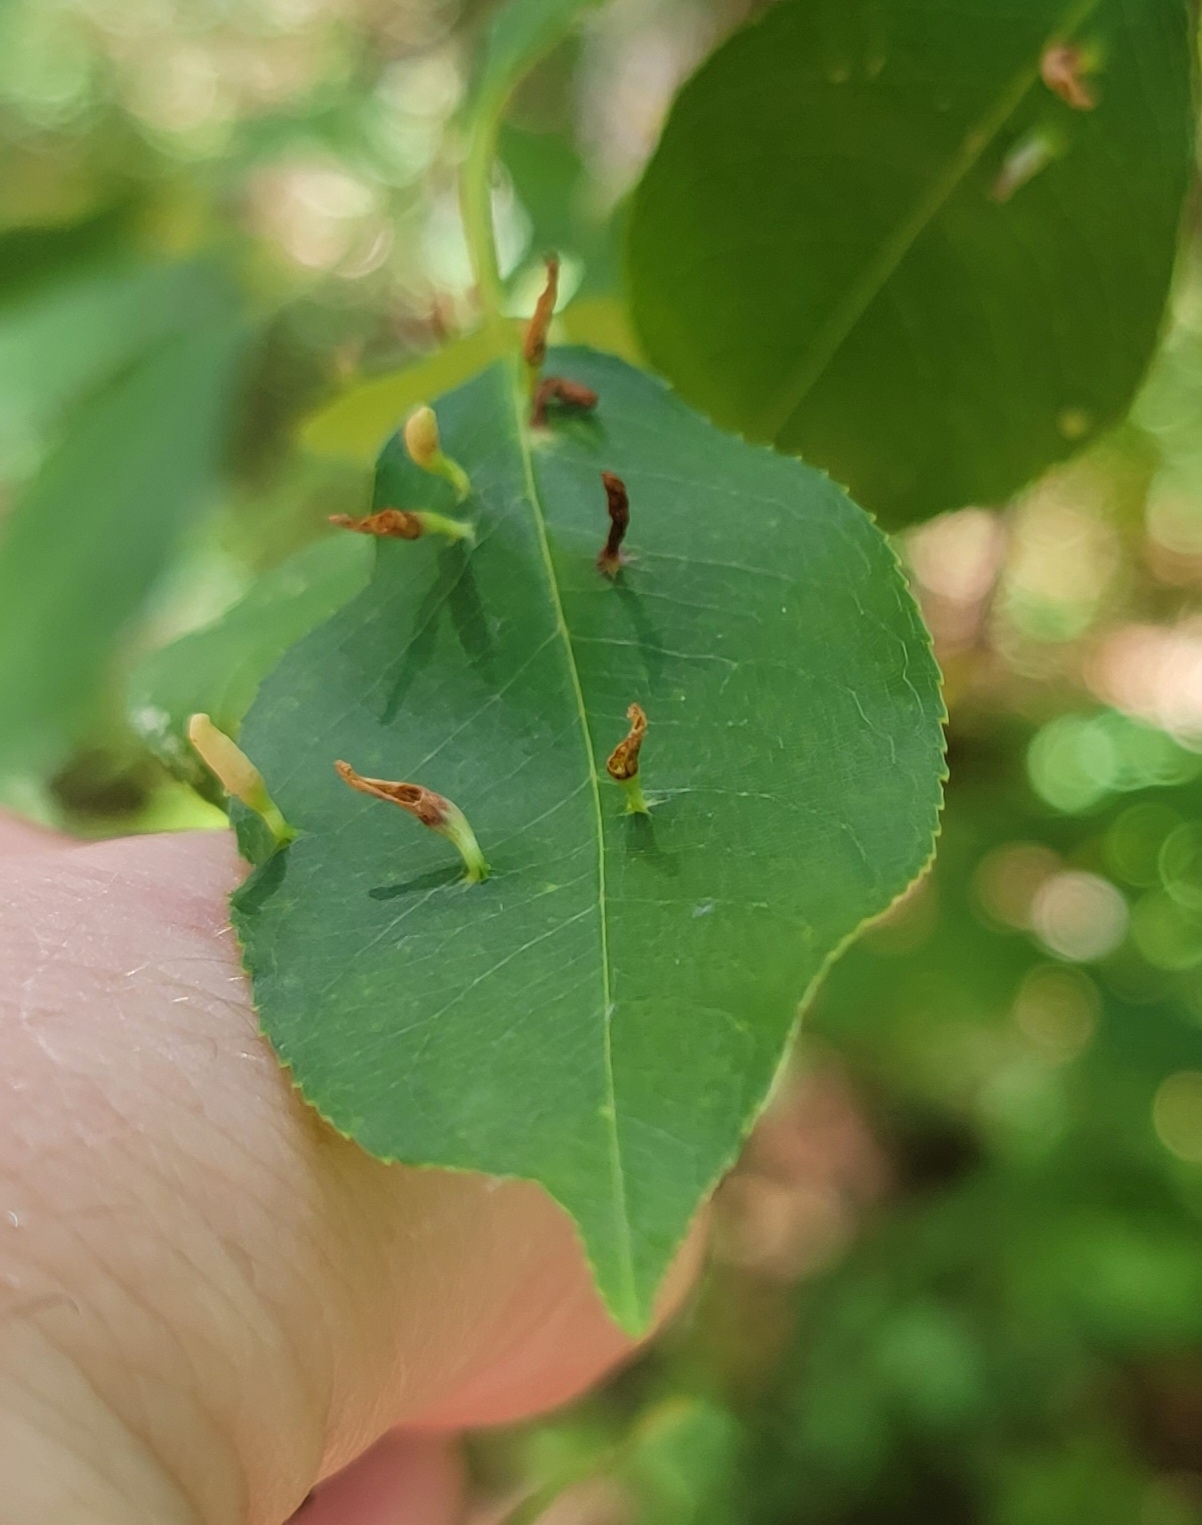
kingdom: Animalia
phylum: Arthropoda
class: Arachnida
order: Trombidiformes
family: Eriophyidae
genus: Eriophyes
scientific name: Eriophyes
